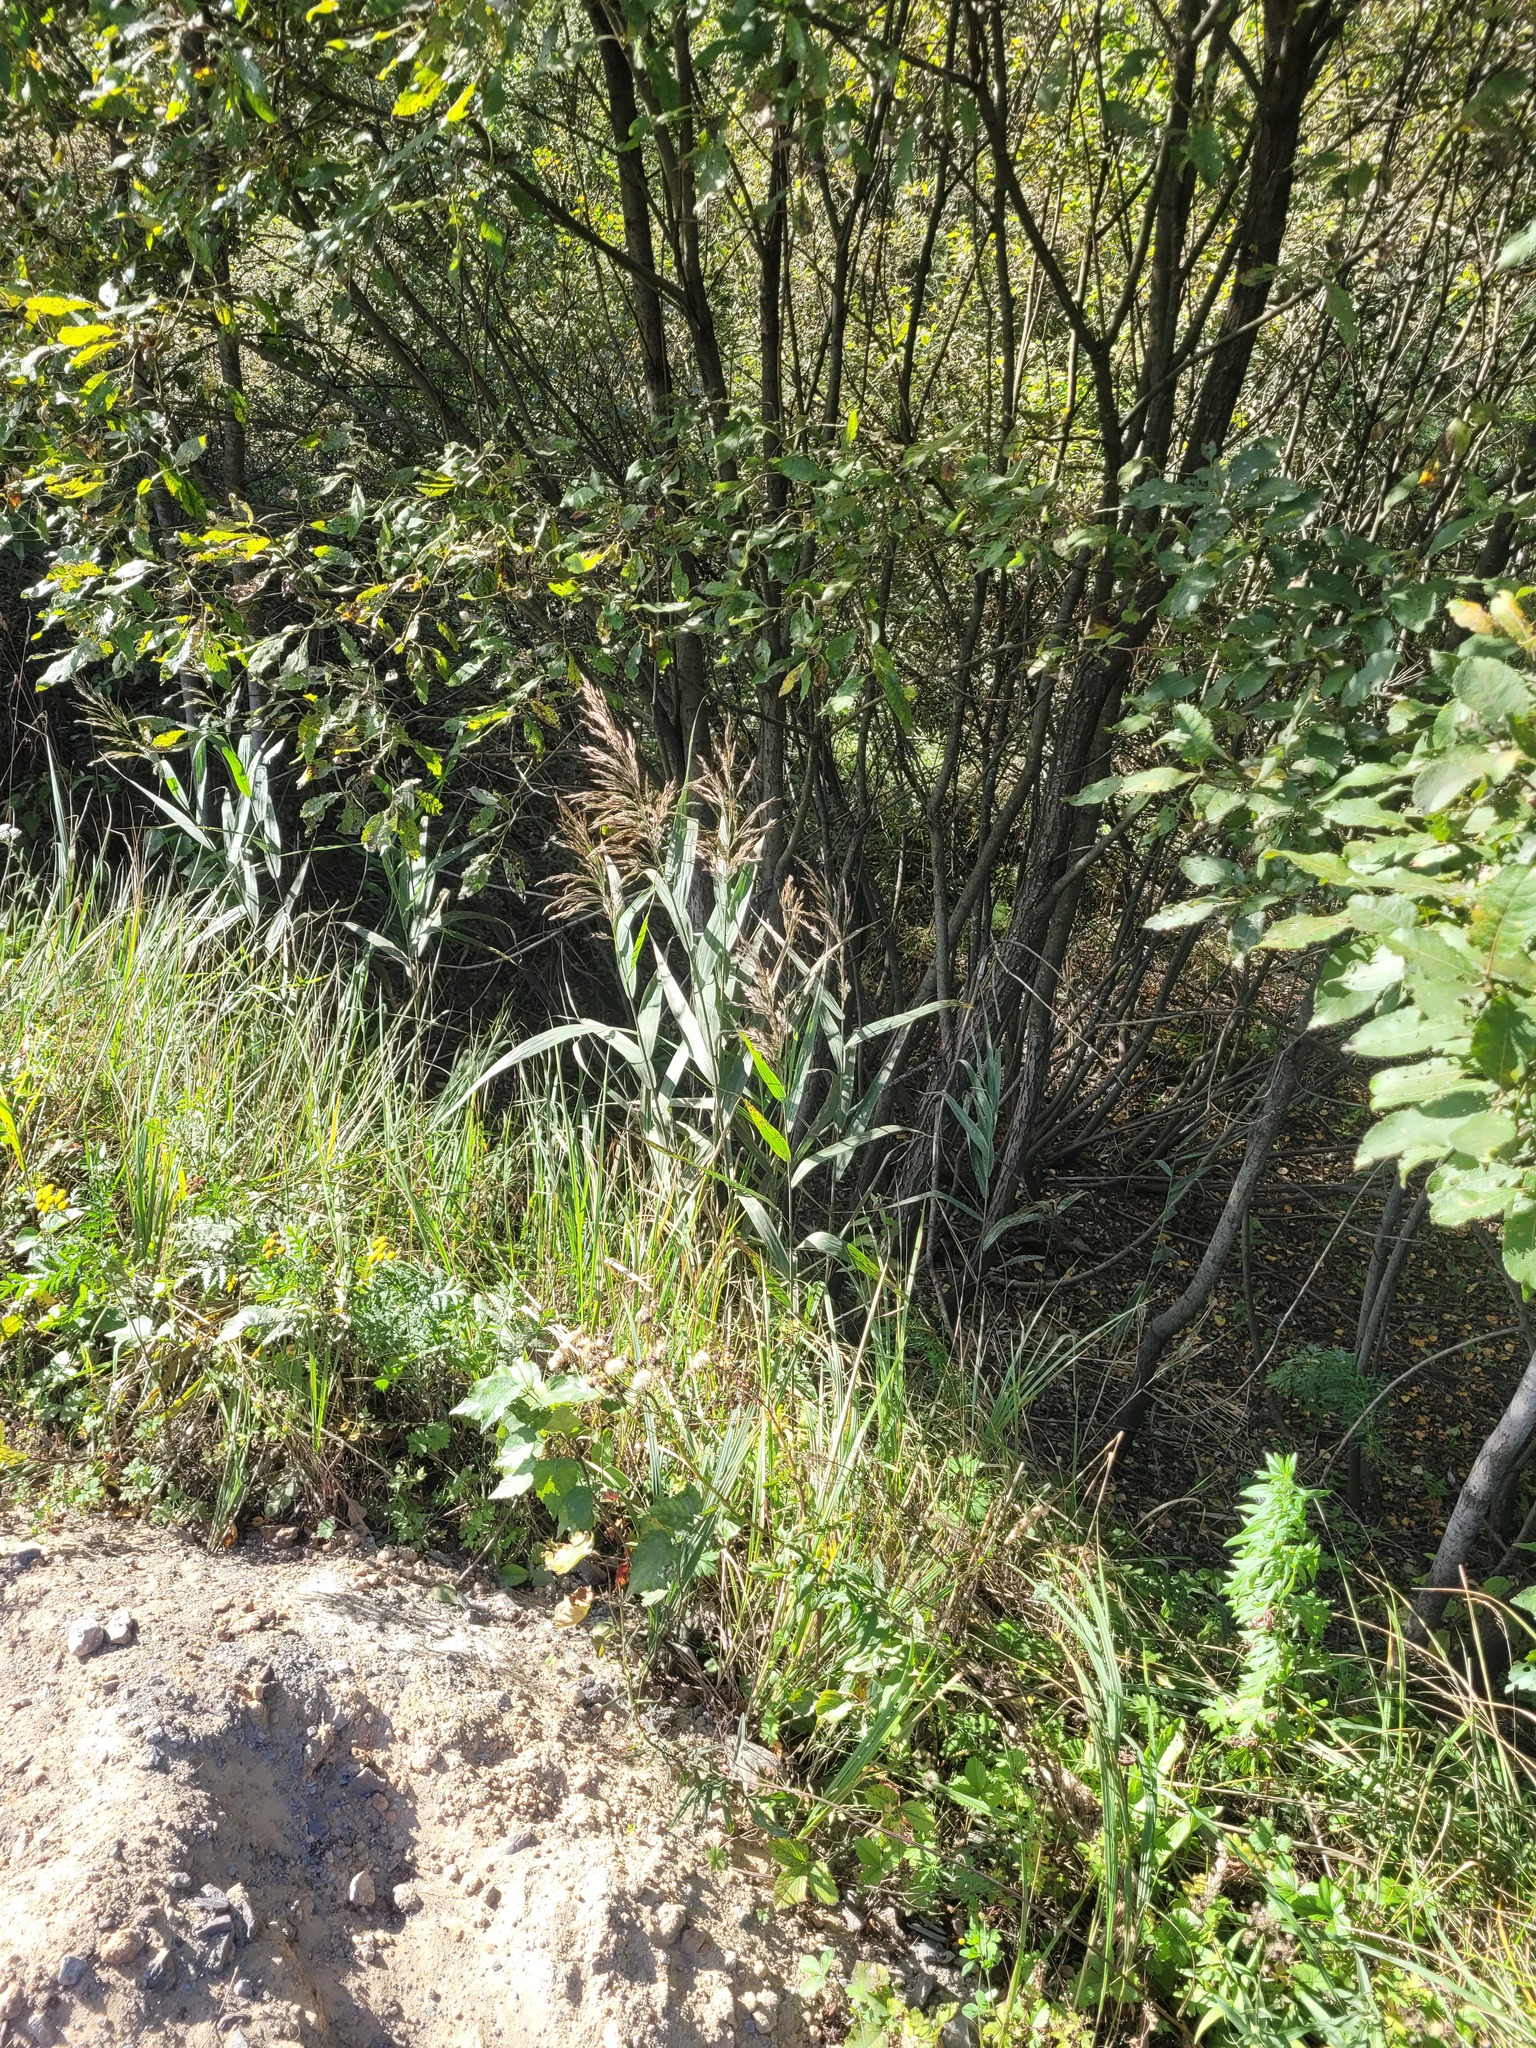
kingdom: Plantae
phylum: Tracheophyta
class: Liliopsida
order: Poales
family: Poaceae
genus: Phragmites
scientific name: Phragmites australis
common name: Common reed
